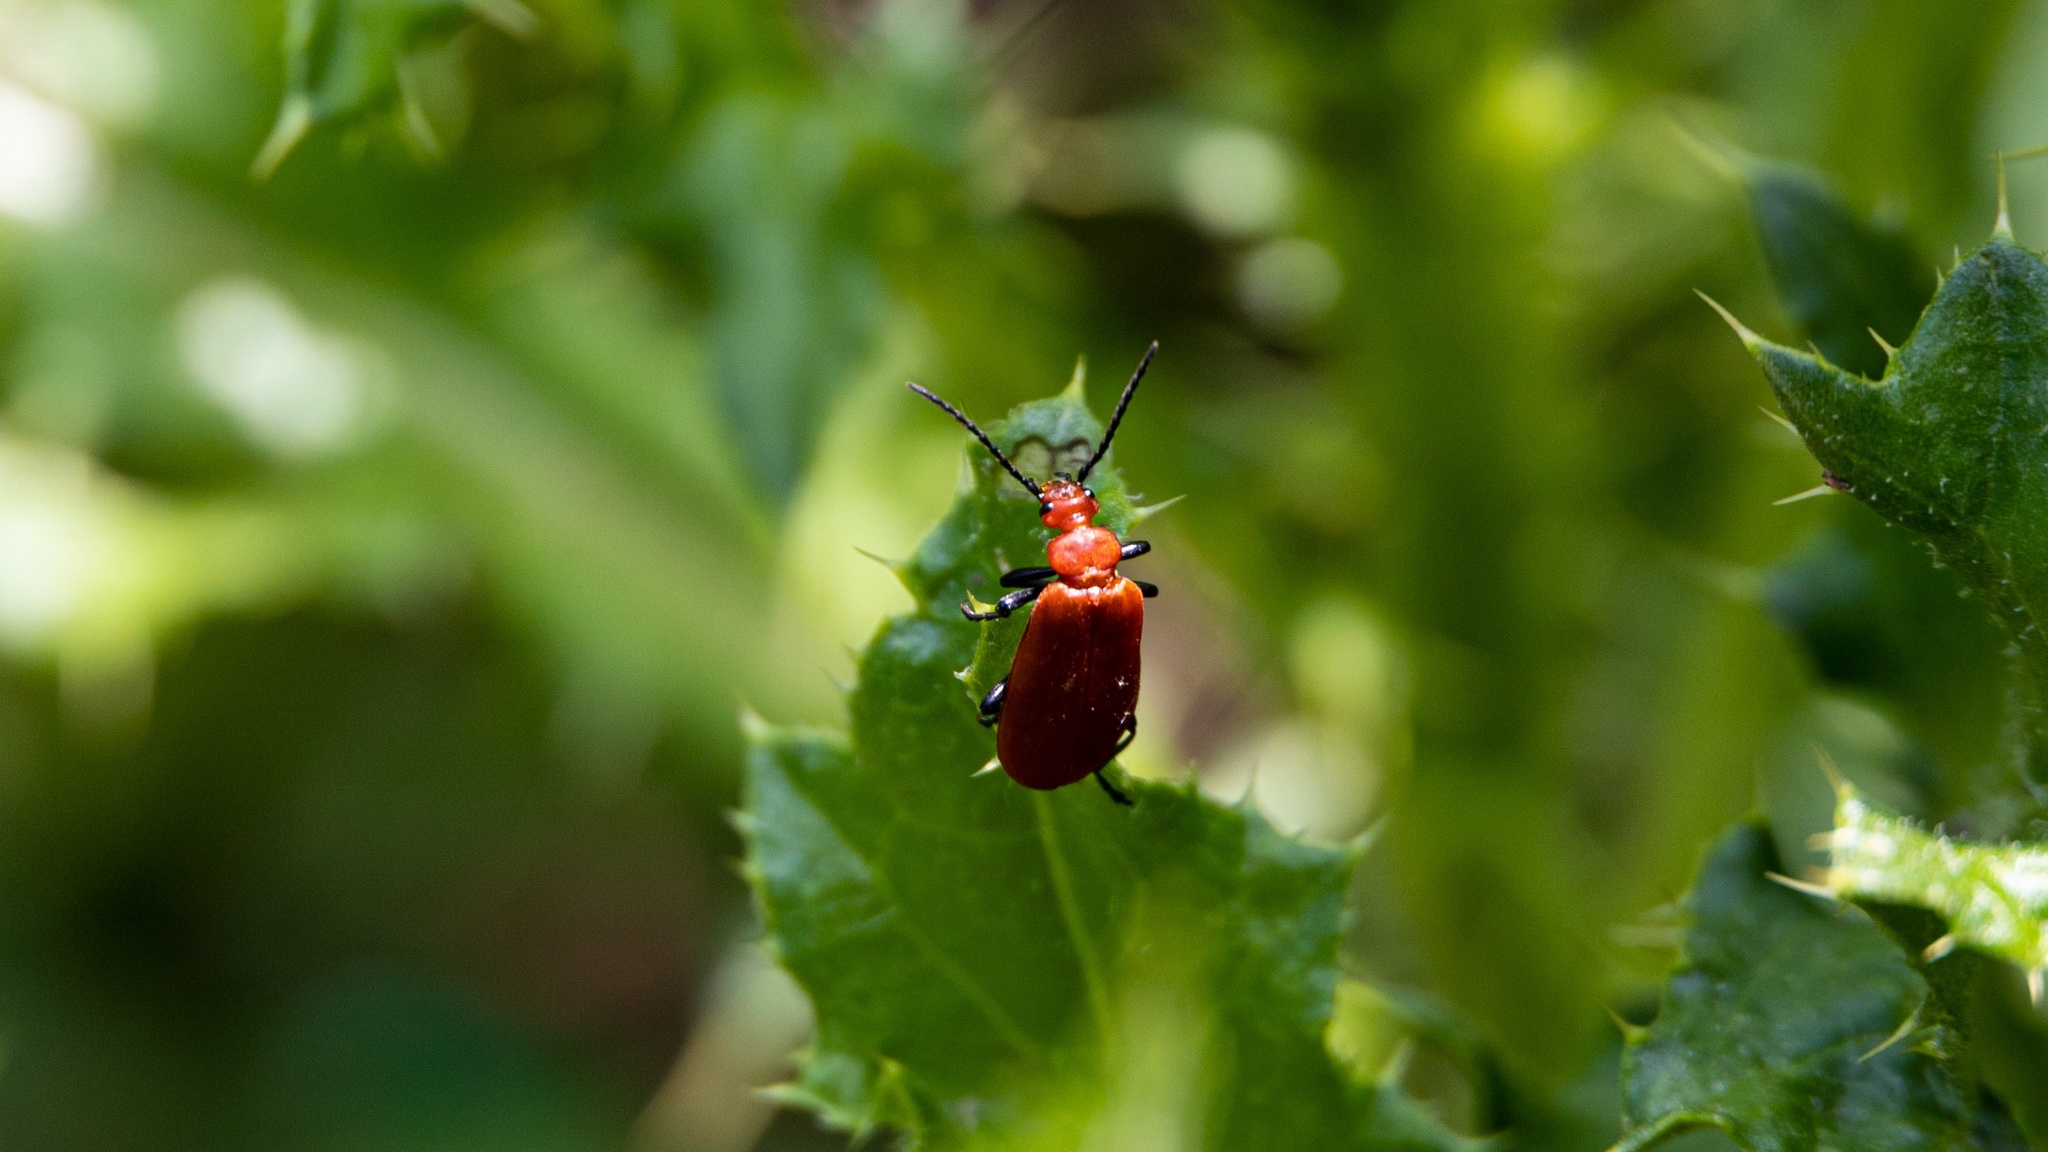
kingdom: Animalia
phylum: Arthropoda
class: Insecta
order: Coleoptera
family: Pyrochroidae
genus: Pyrochroa
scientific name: Pyrochroa serraticornis
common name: Red-headed cardinal beetle
